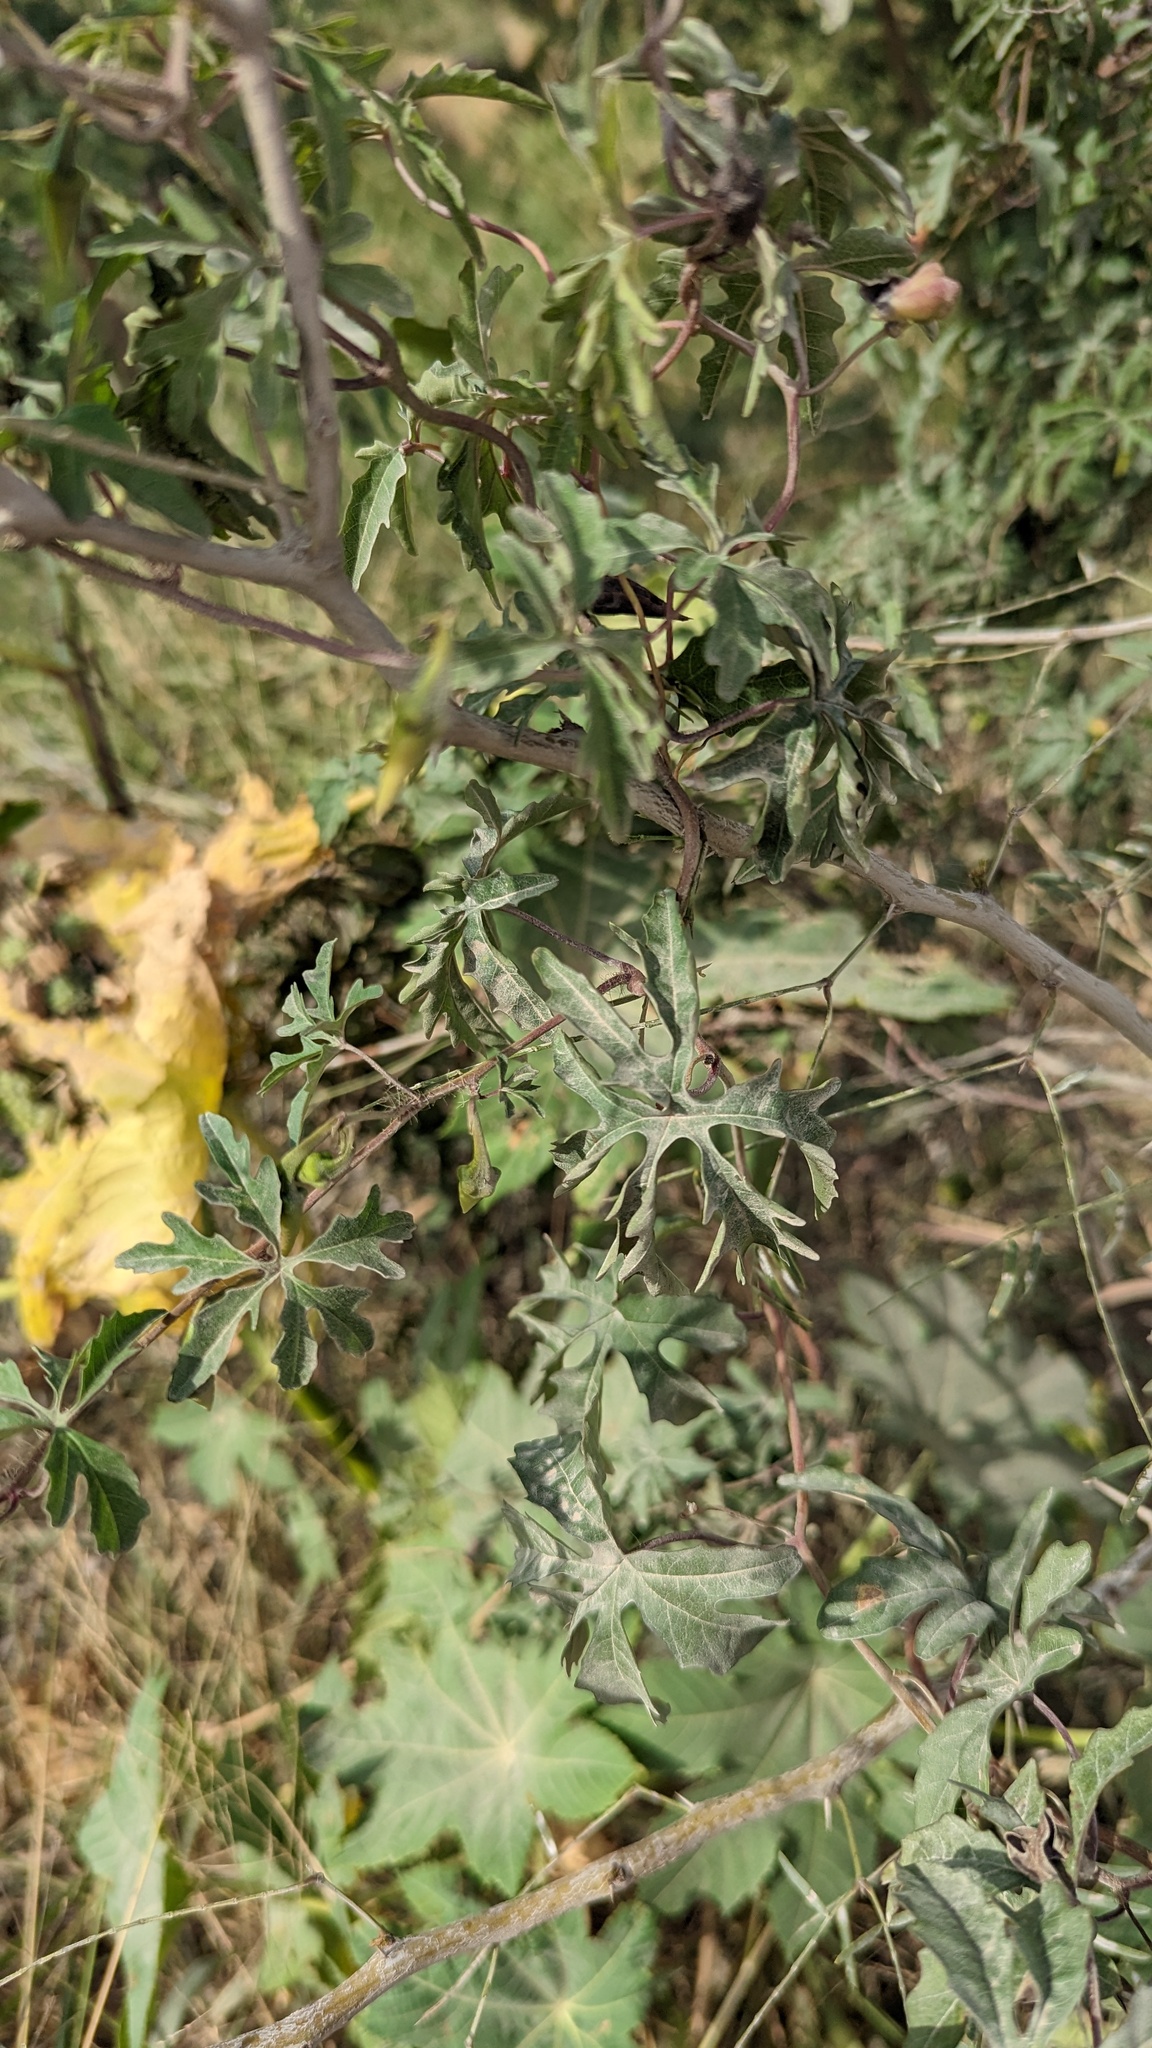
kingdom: Plantae
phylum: Tracheophyta
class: Magnoliopsida
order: Solanales
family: Convolvulaceae
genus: Distimake
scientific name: Distimake dissectus
